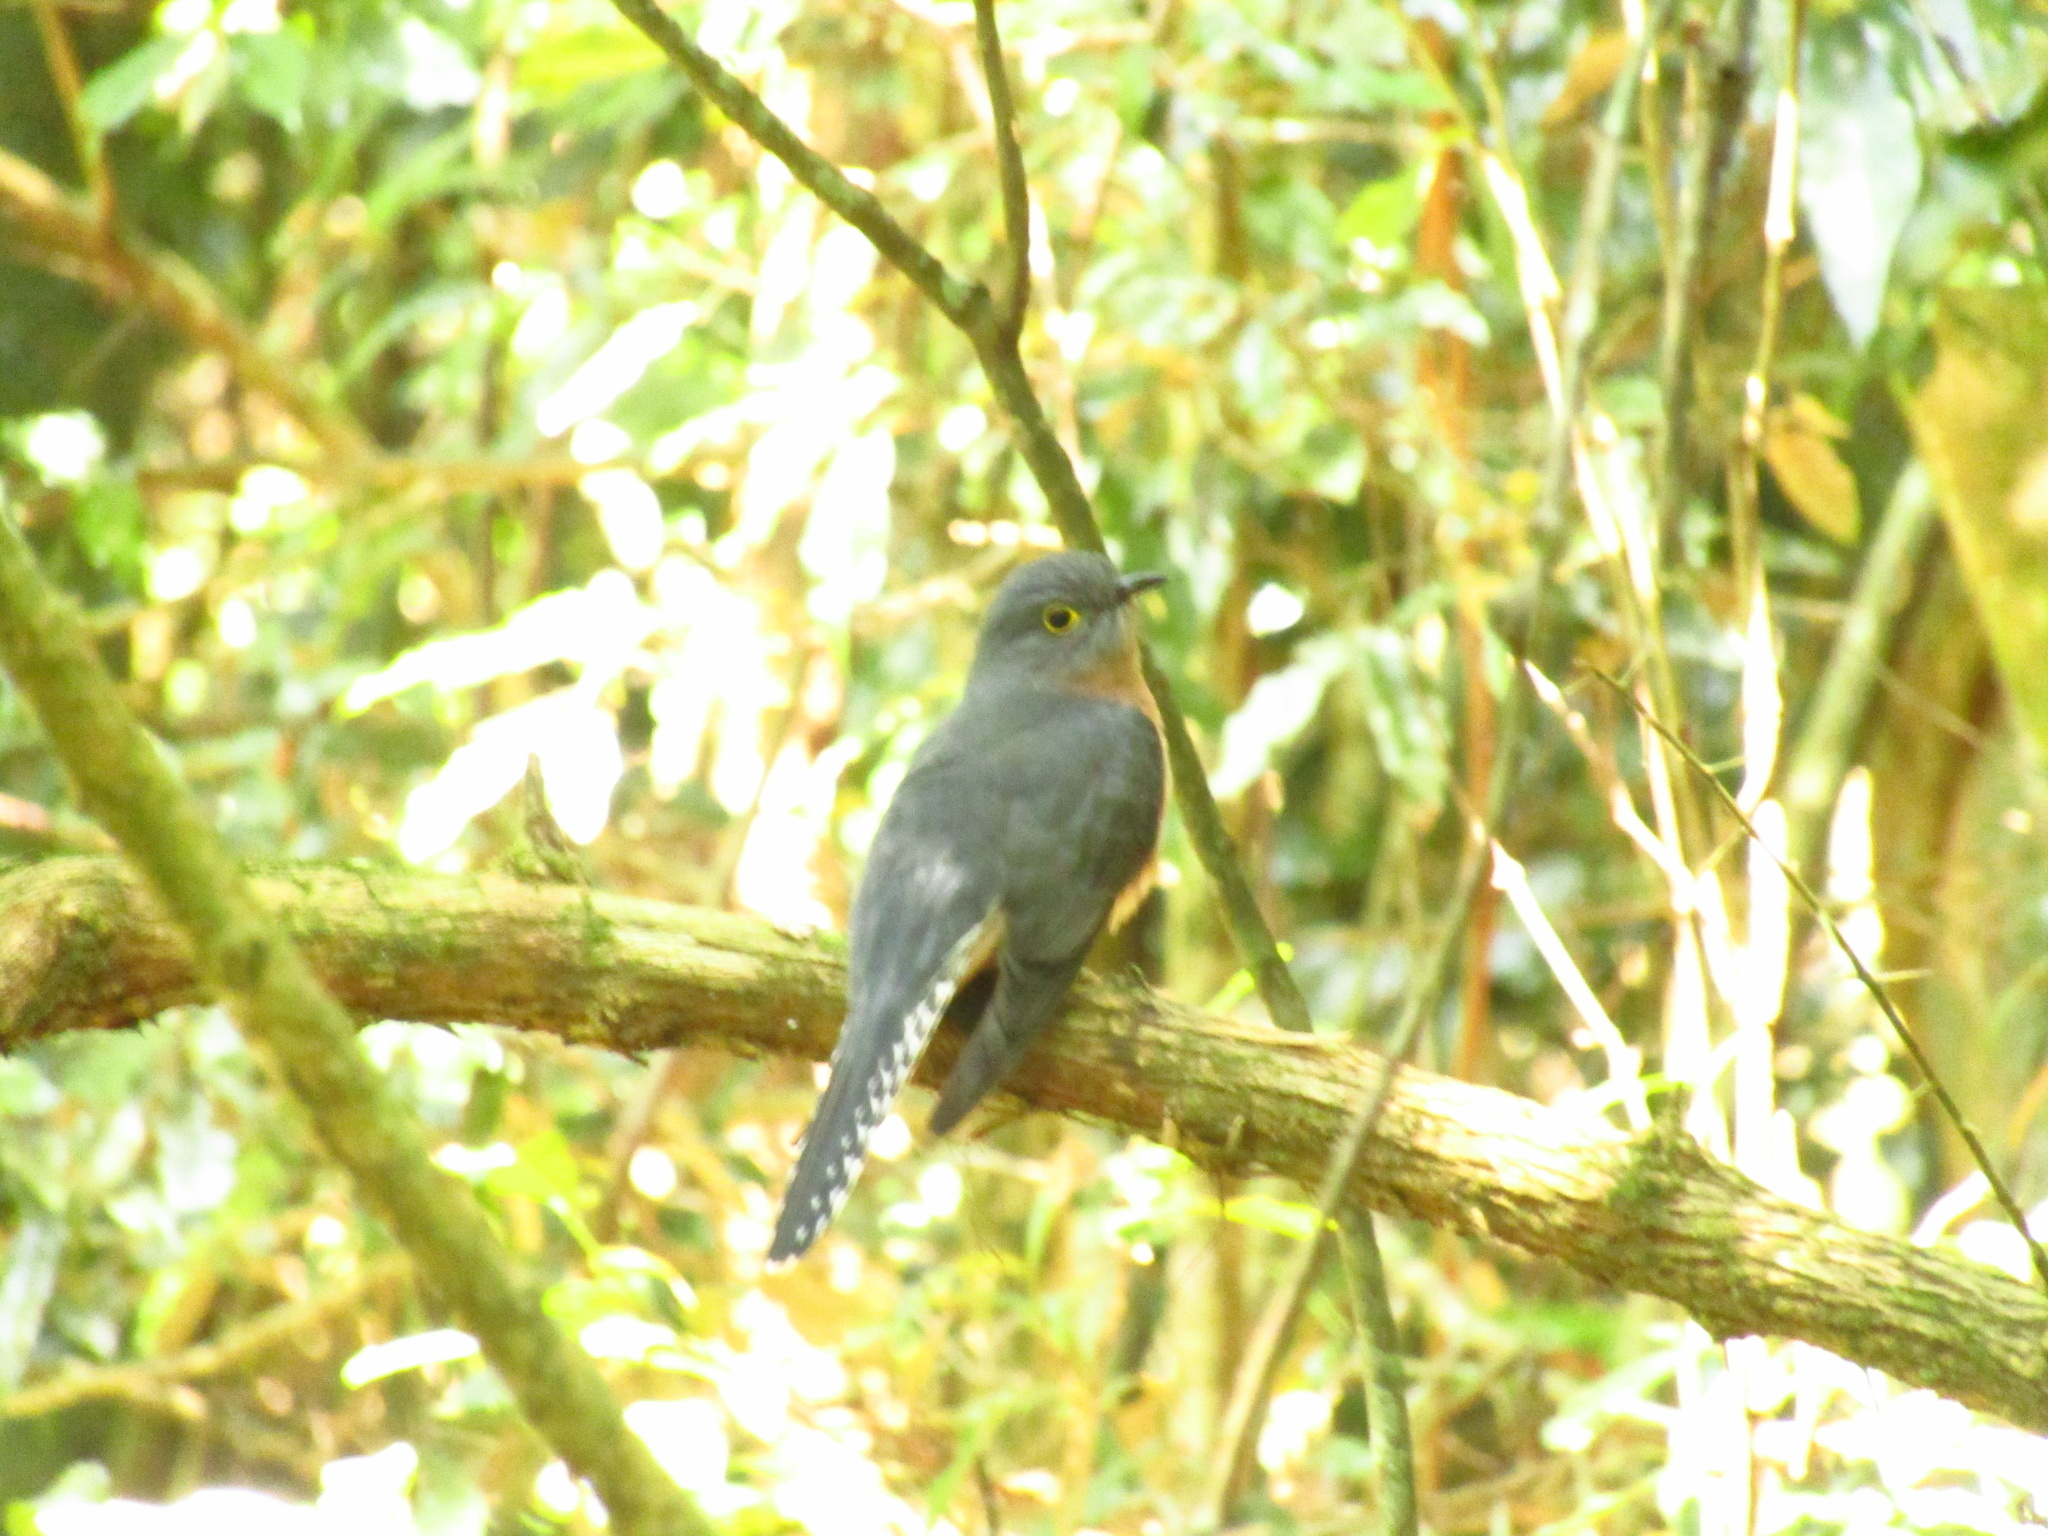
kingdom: Animalia
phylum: Chordata
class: Aves
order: Cuculiformes
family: Cuculidae
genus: Cacomantis
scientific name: Cacomantis flabelliformis
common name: Fan-tailed cuckoo
